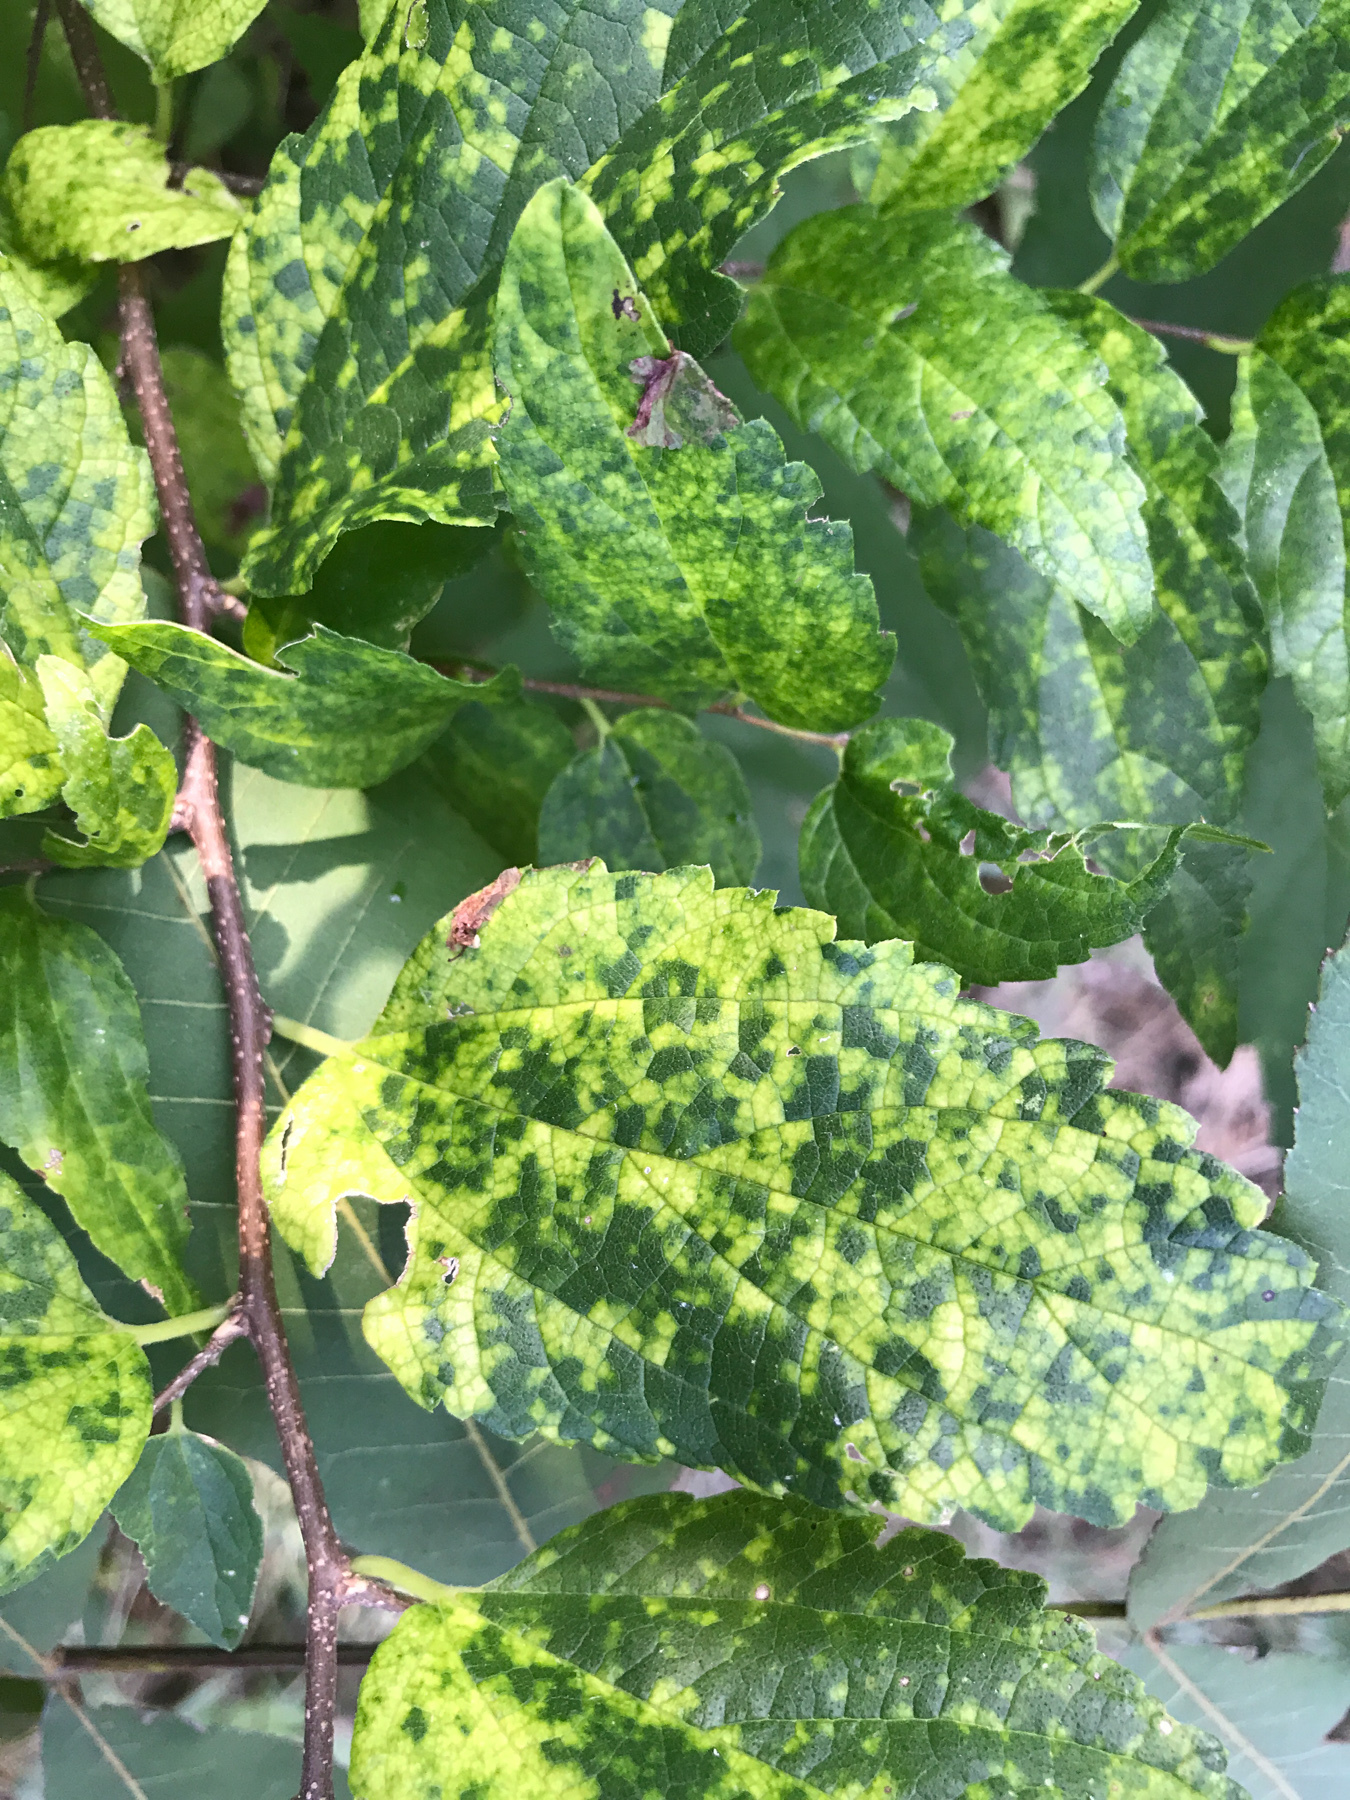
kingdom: Viruses
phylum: Kitrinoviricota
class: Alsuviricetes
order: Martellivirales
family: Closteroviridae
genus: Ampelovirus
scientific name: Ampelovirus
